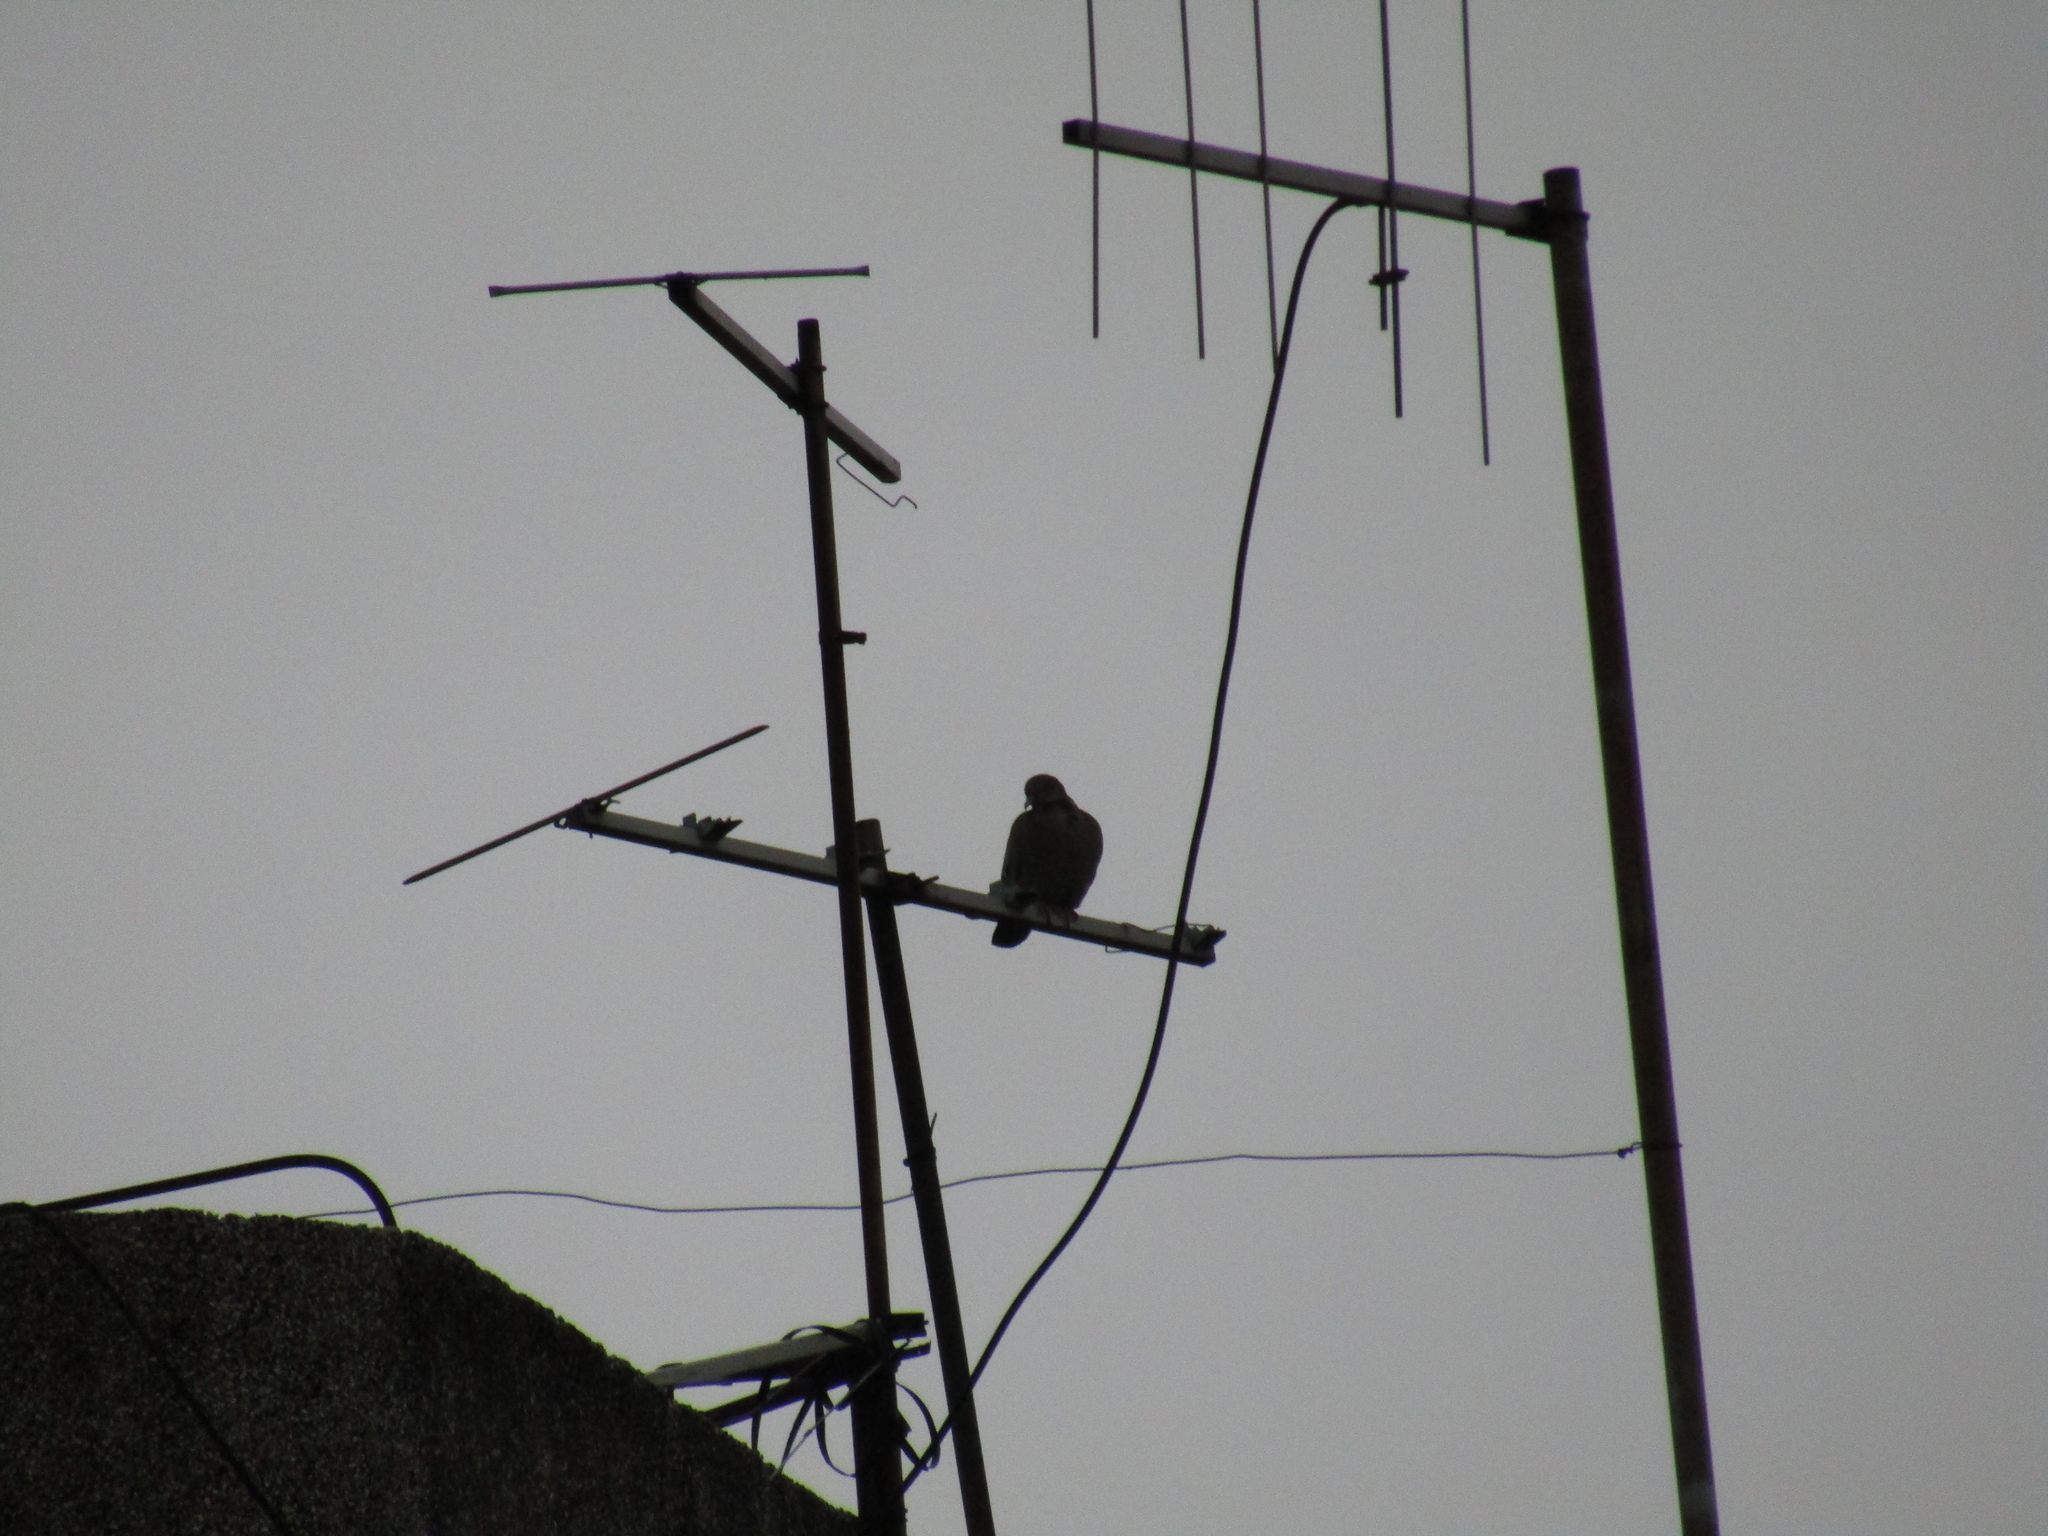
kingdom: Animalia
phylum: Chordata
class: Aves
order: Columbiformes
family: Columbidae
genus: Zenaida
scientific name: Zenaida auriculata
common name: Eared dove
